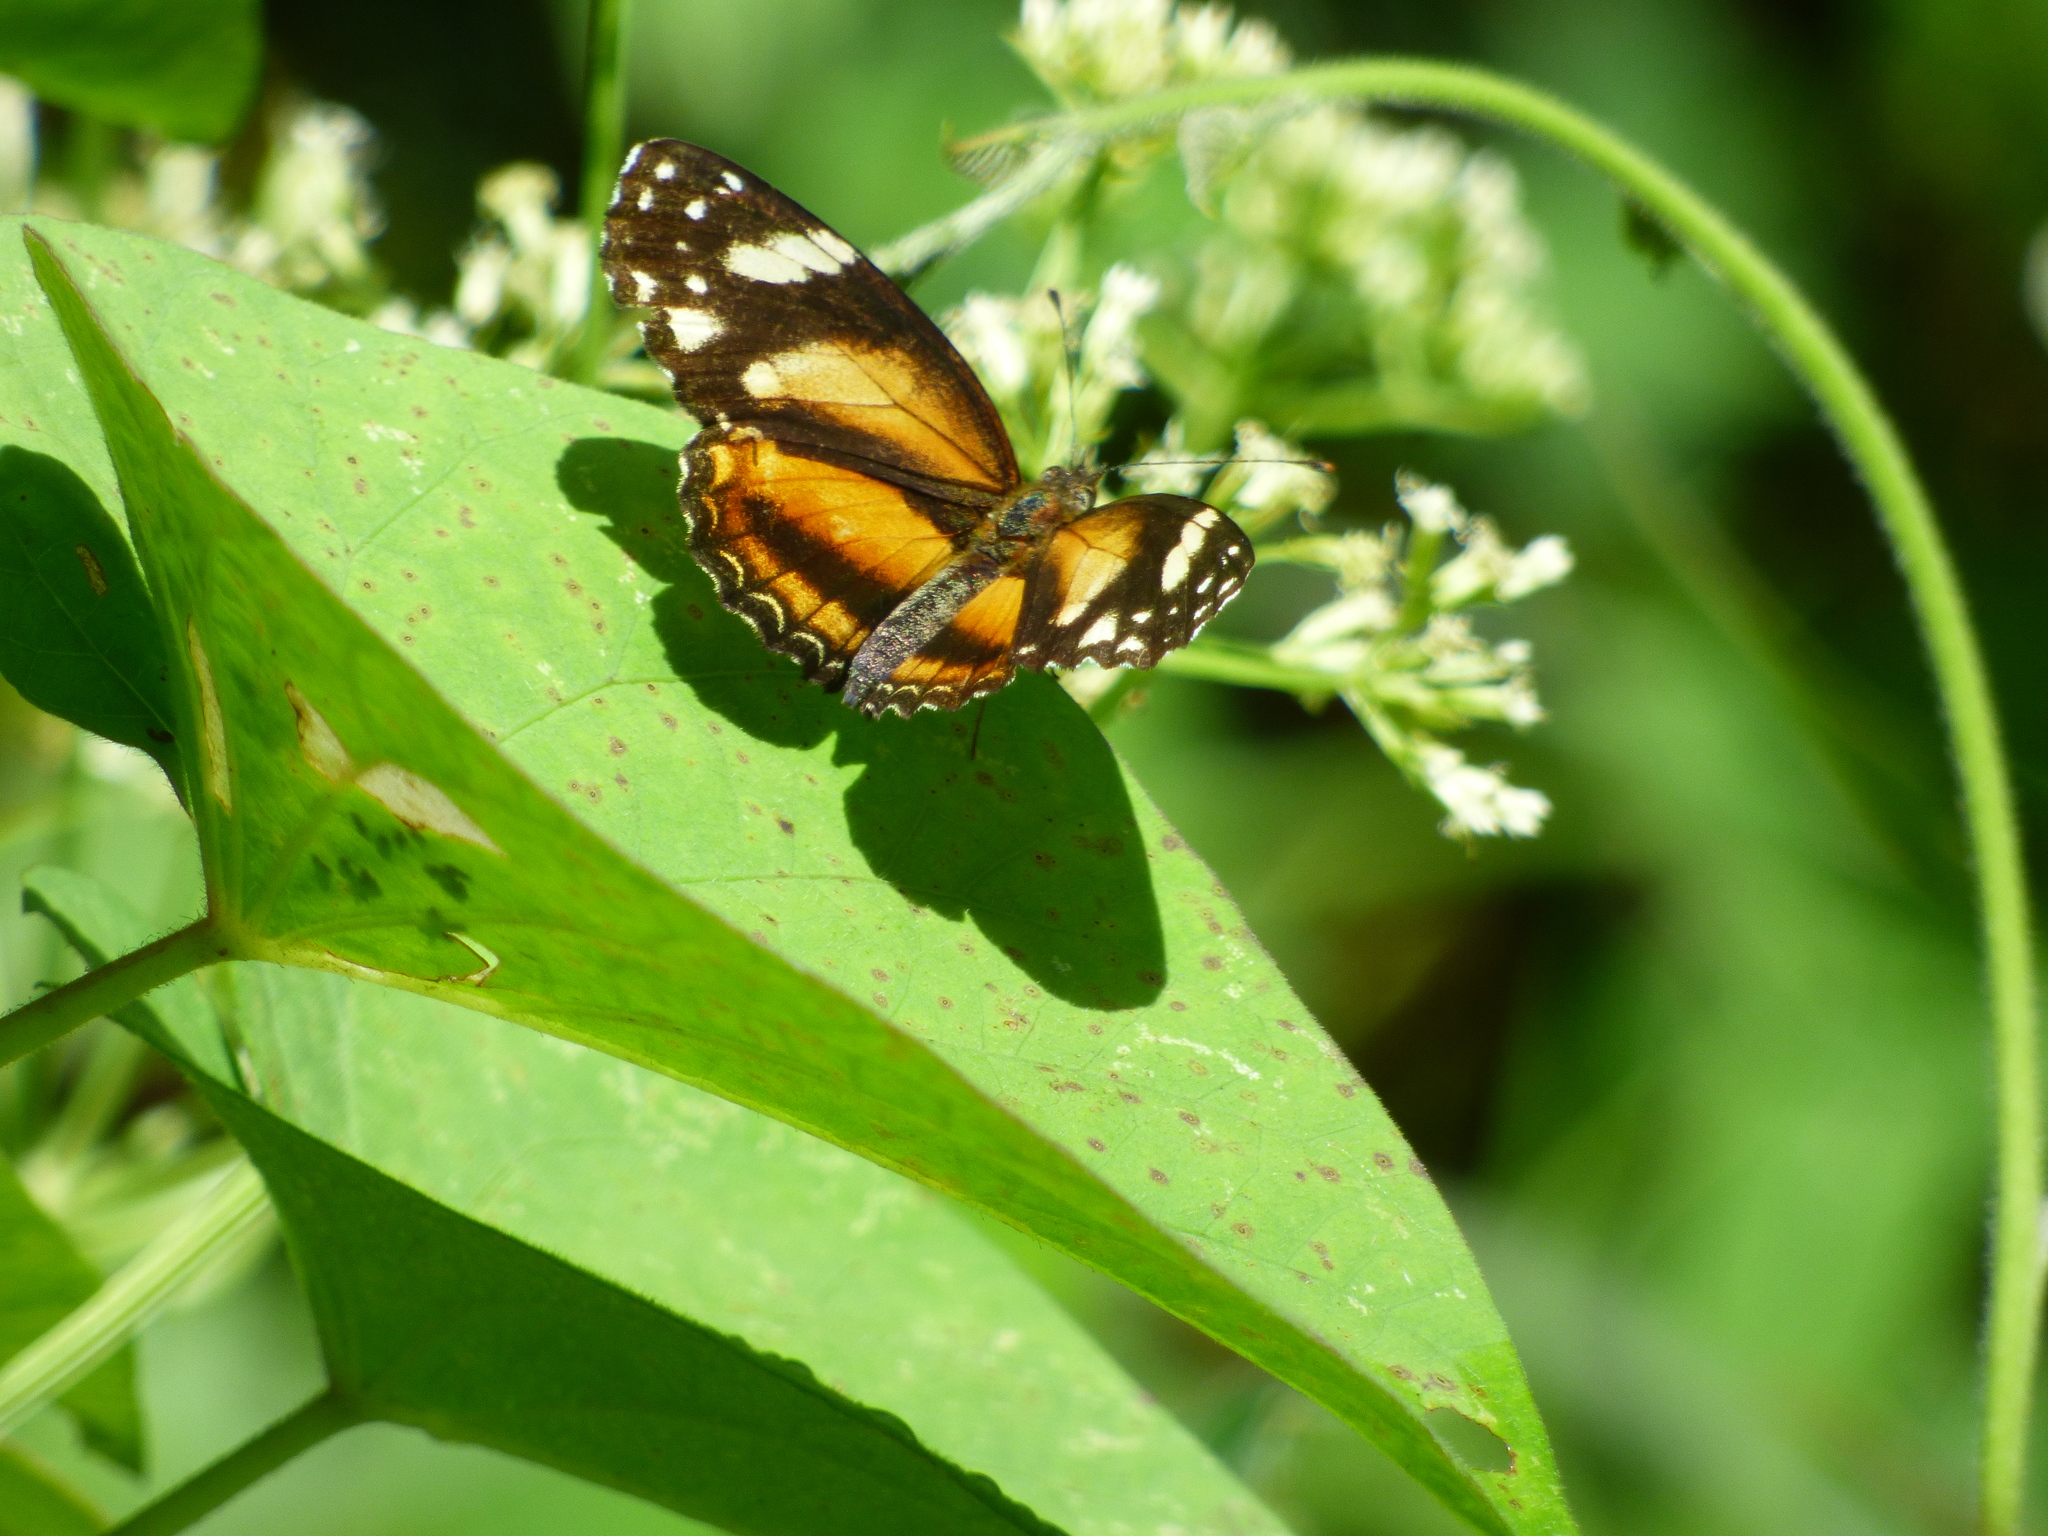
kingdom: Animalia
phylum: Arthropoda
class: Insecta
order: Lepidoptera
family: Nymphalidae
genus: Castilia
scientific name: Castilia eranites
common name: Smudged crescent
